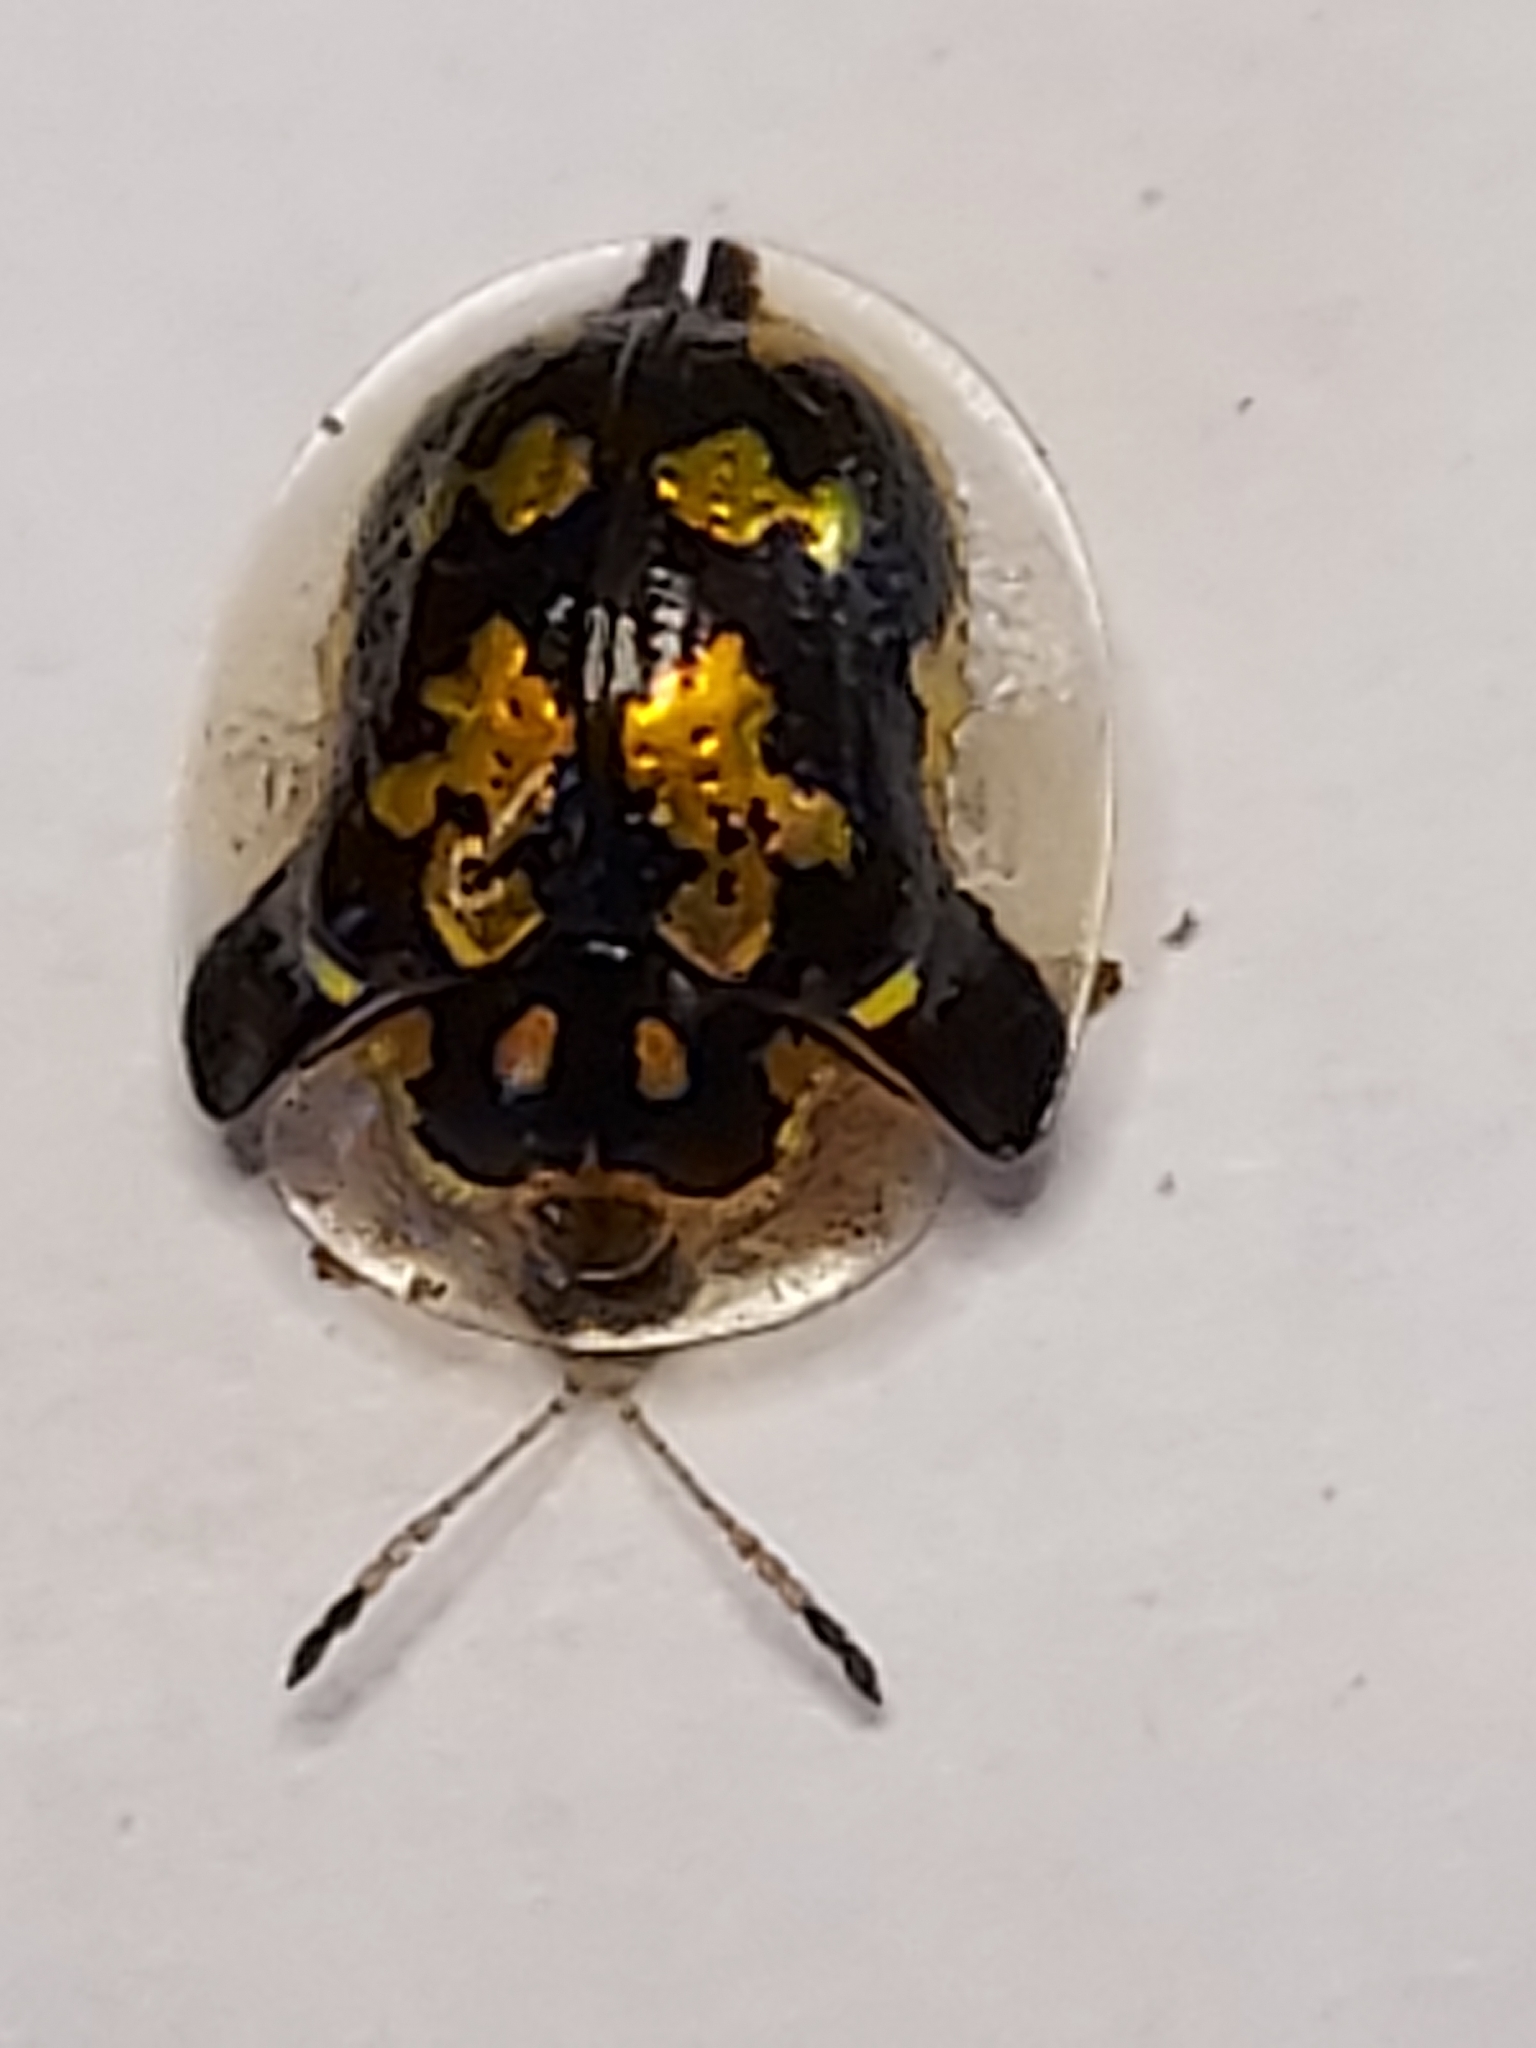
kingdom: Animalia
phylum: Arthropoda
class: Insecta
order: Coleoptera
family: Chrysomelidae
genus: Deloyala
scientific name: Deloyala guttata
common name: Mottled tortoise beetle
